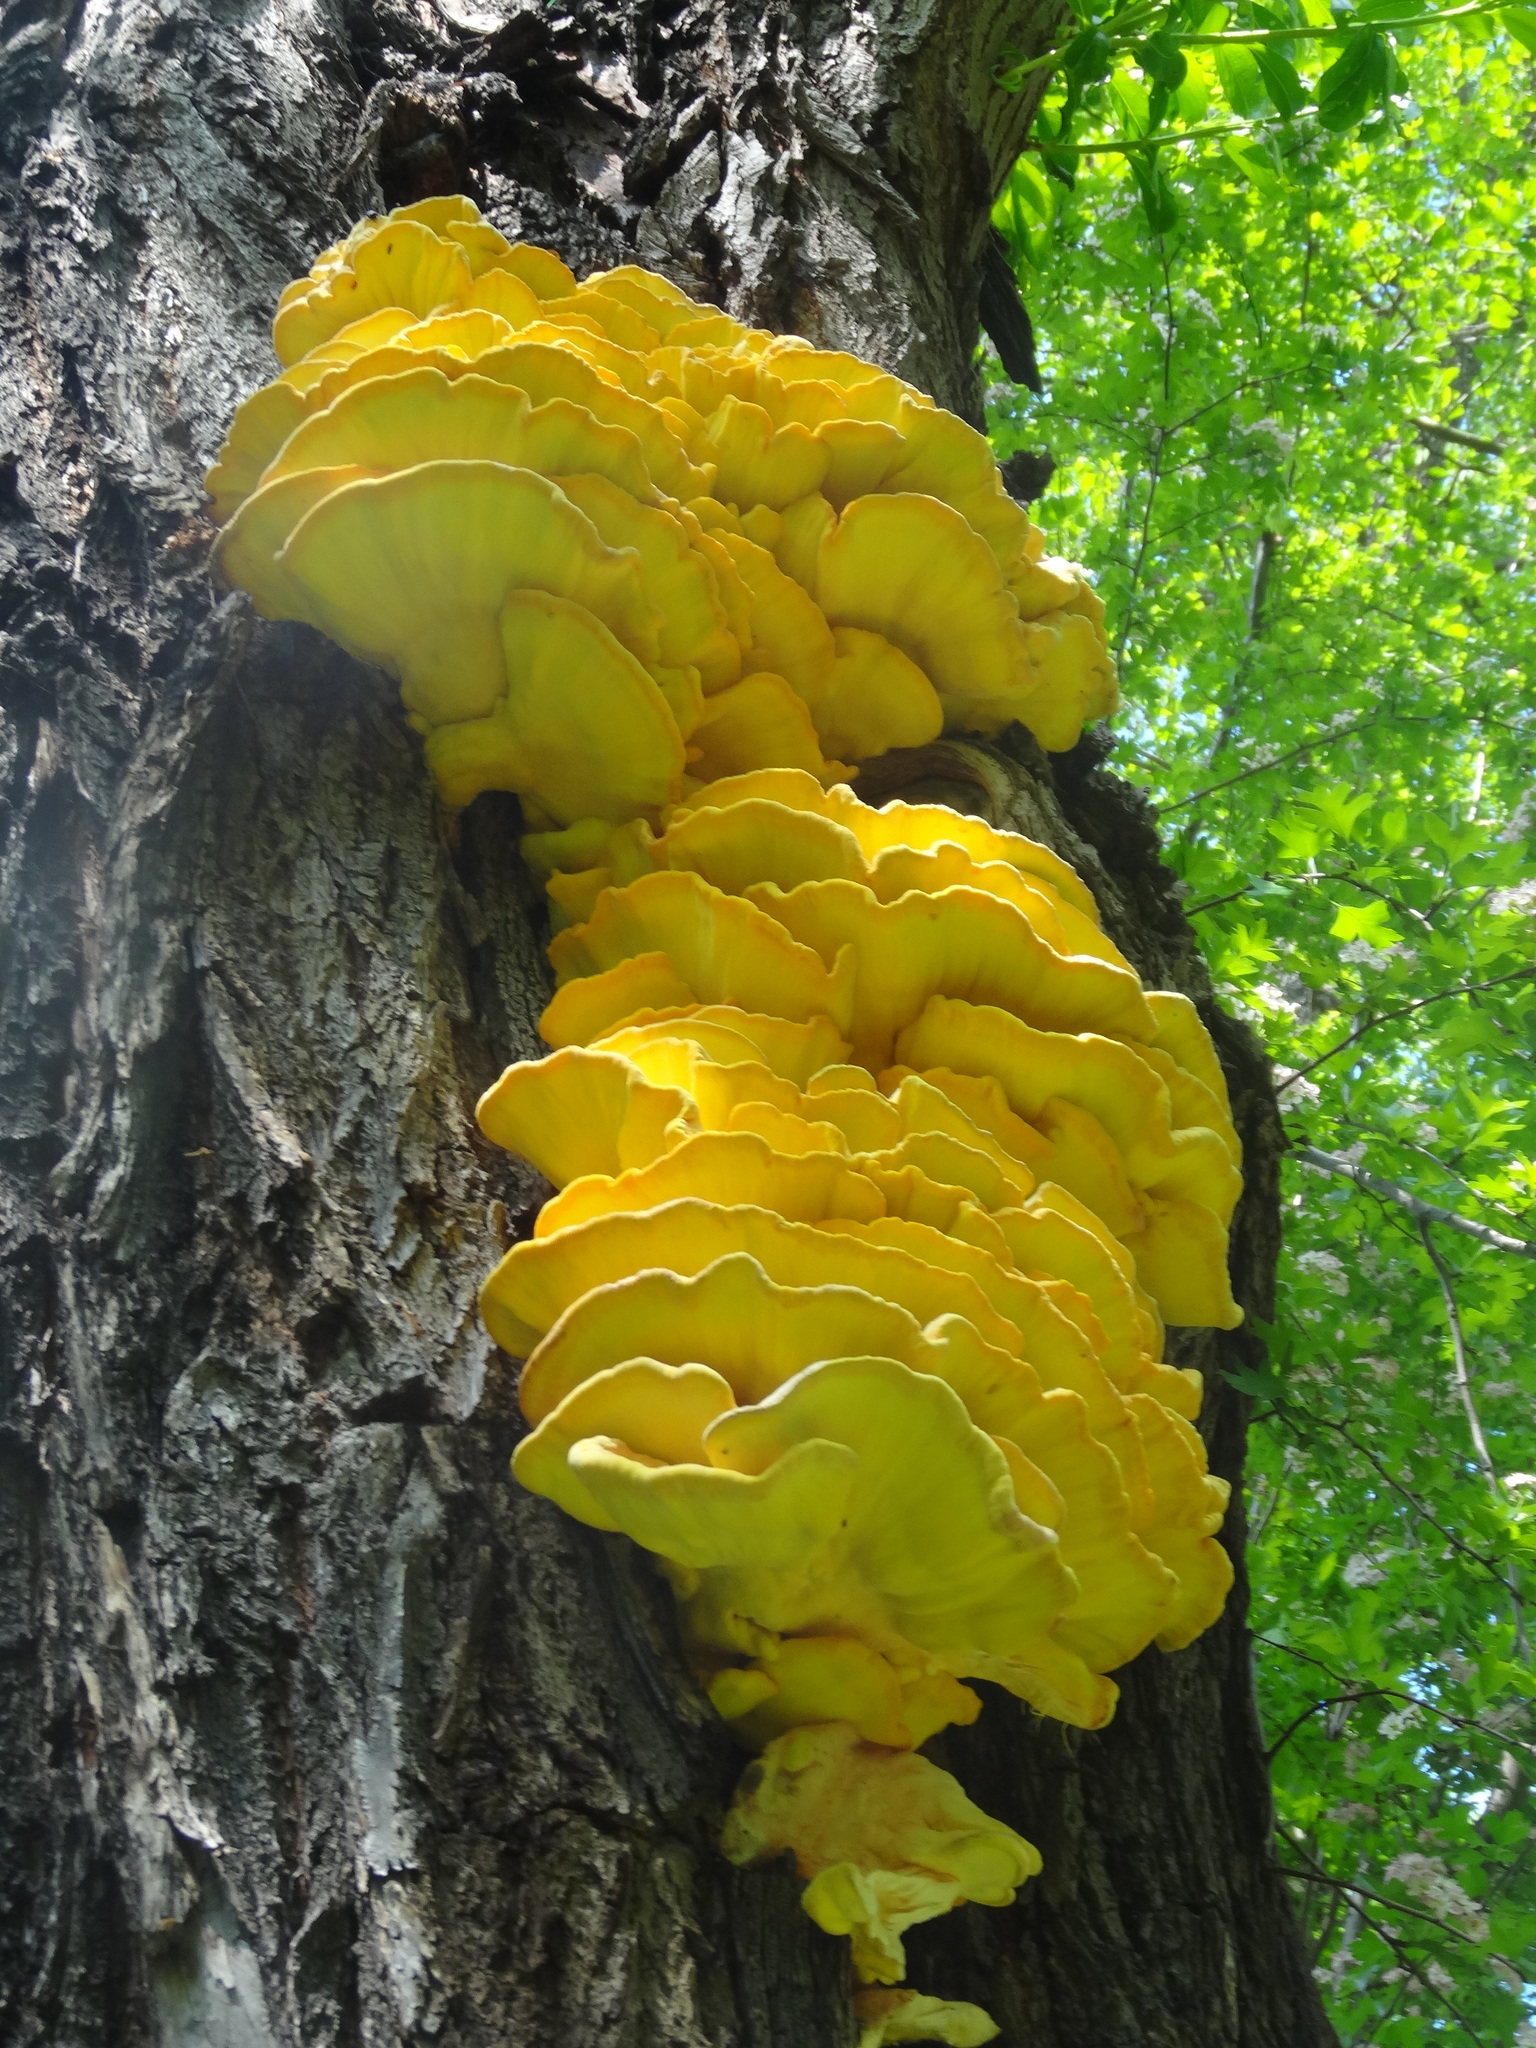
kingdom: Fungi
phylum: Basidiomycota
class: Agaricomycetes
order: Polyporales
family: Laetiporaceae
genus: Laetiporus
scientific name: Laetiporus sulphureus
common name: Chicken of the woods
